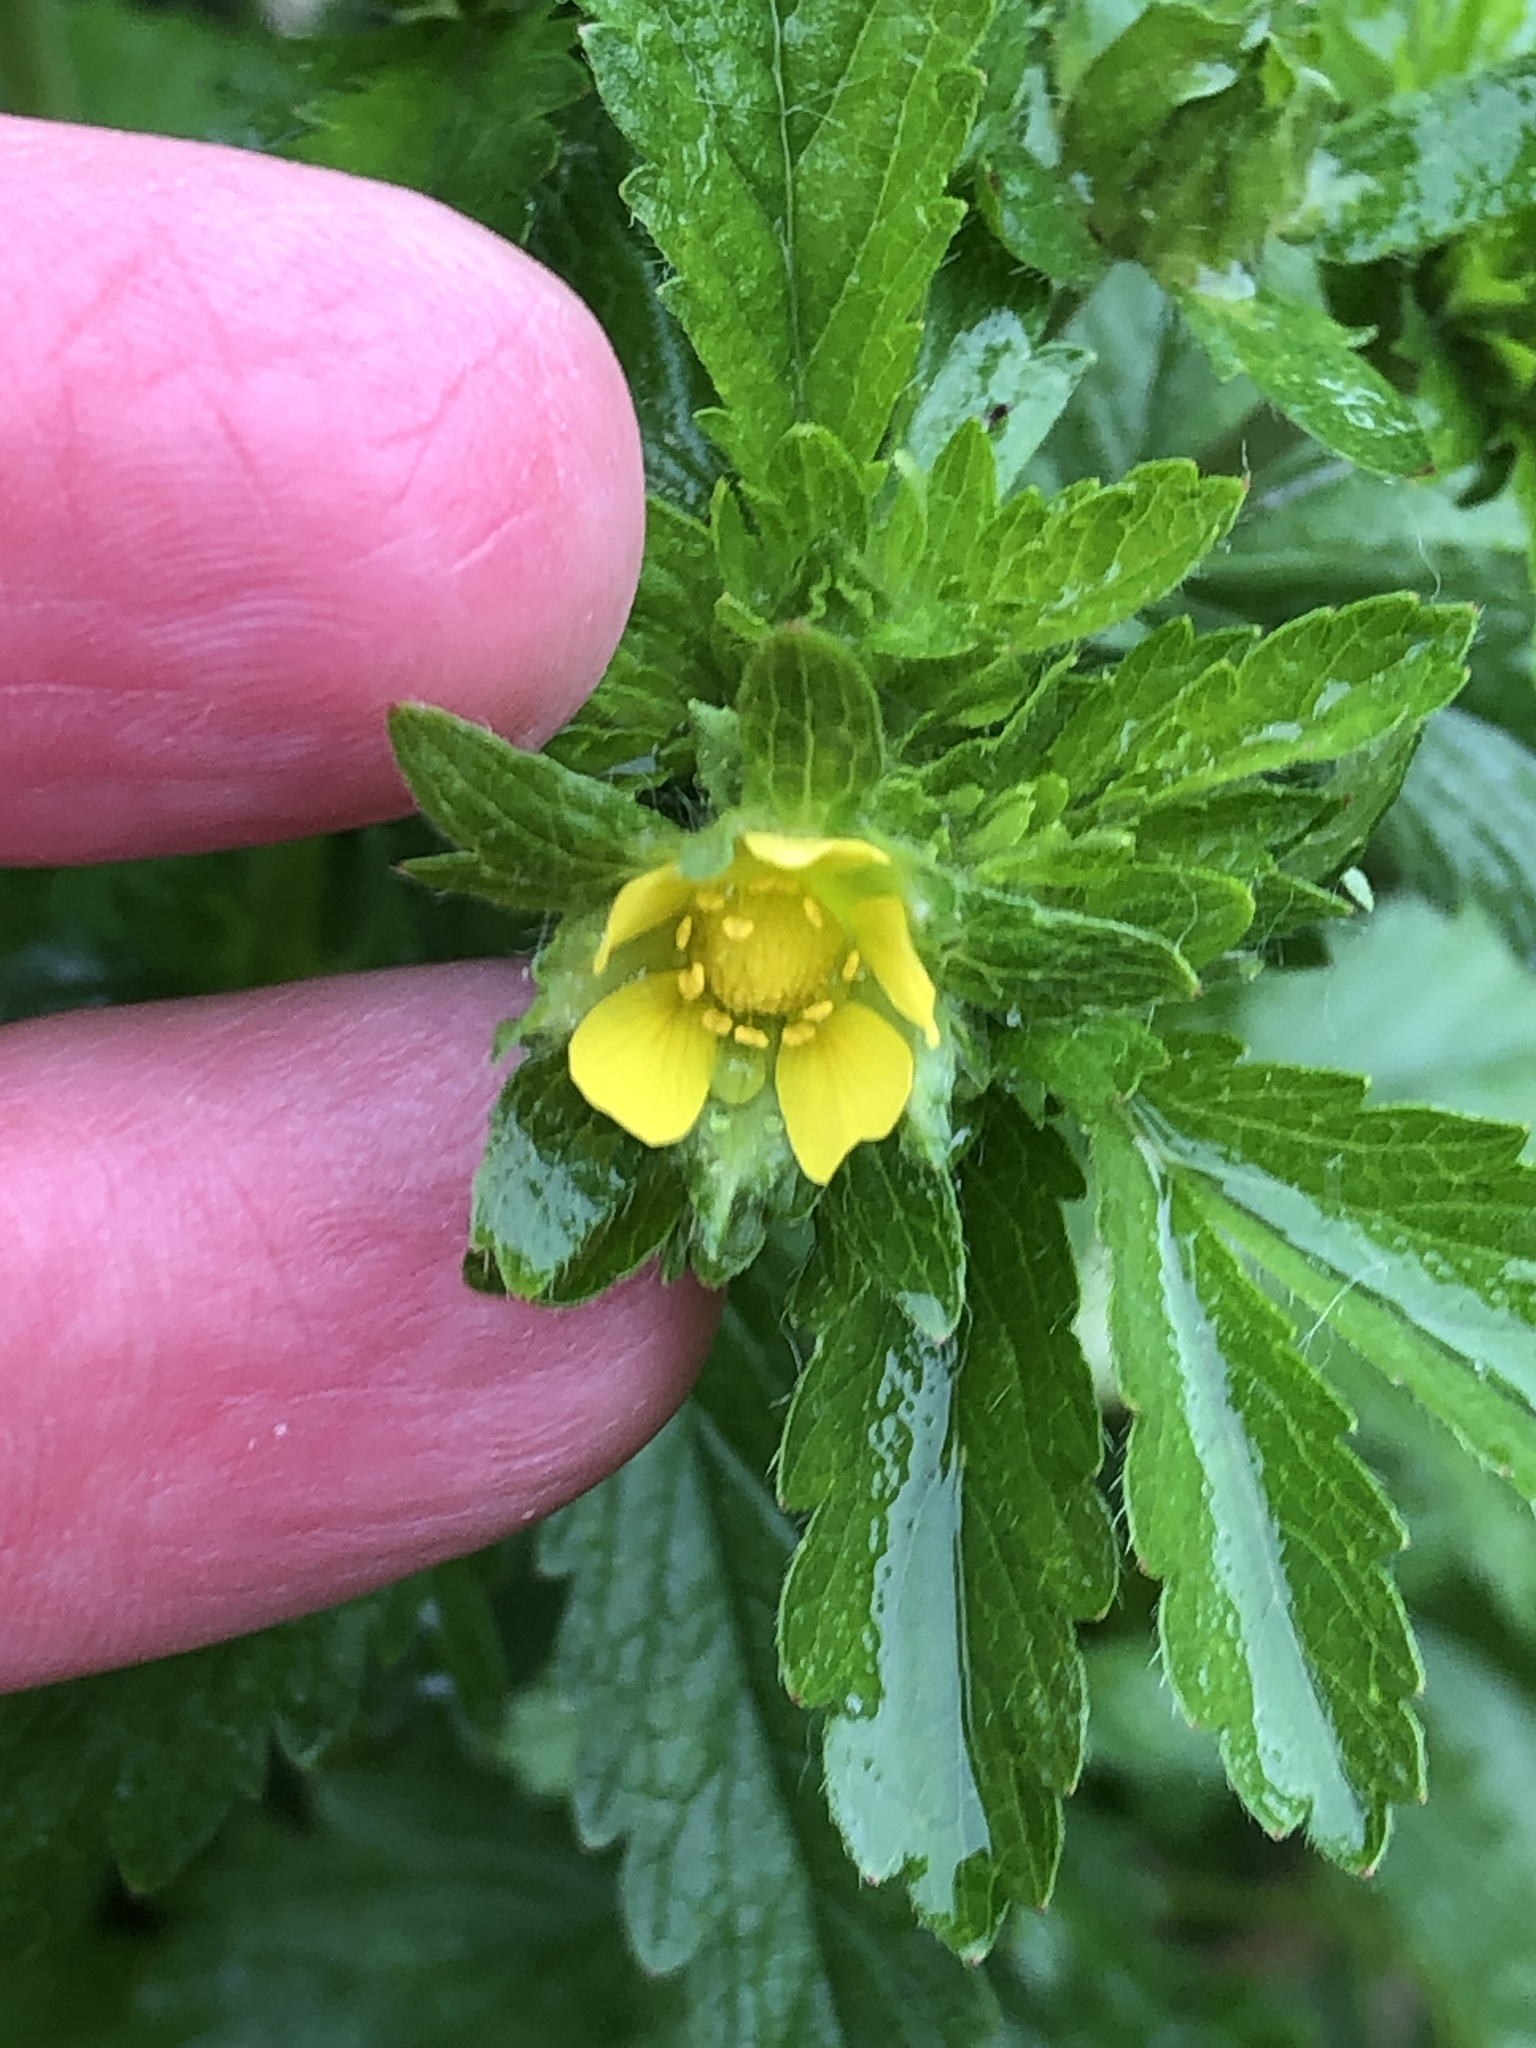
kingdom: Plantae
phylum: Tracheophyta
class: Magnoliopsida
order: Rosales
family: Rosaceae
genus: Potentilla
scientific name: Potentilla norvegica
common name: Ternate-leaved cinquefoil
